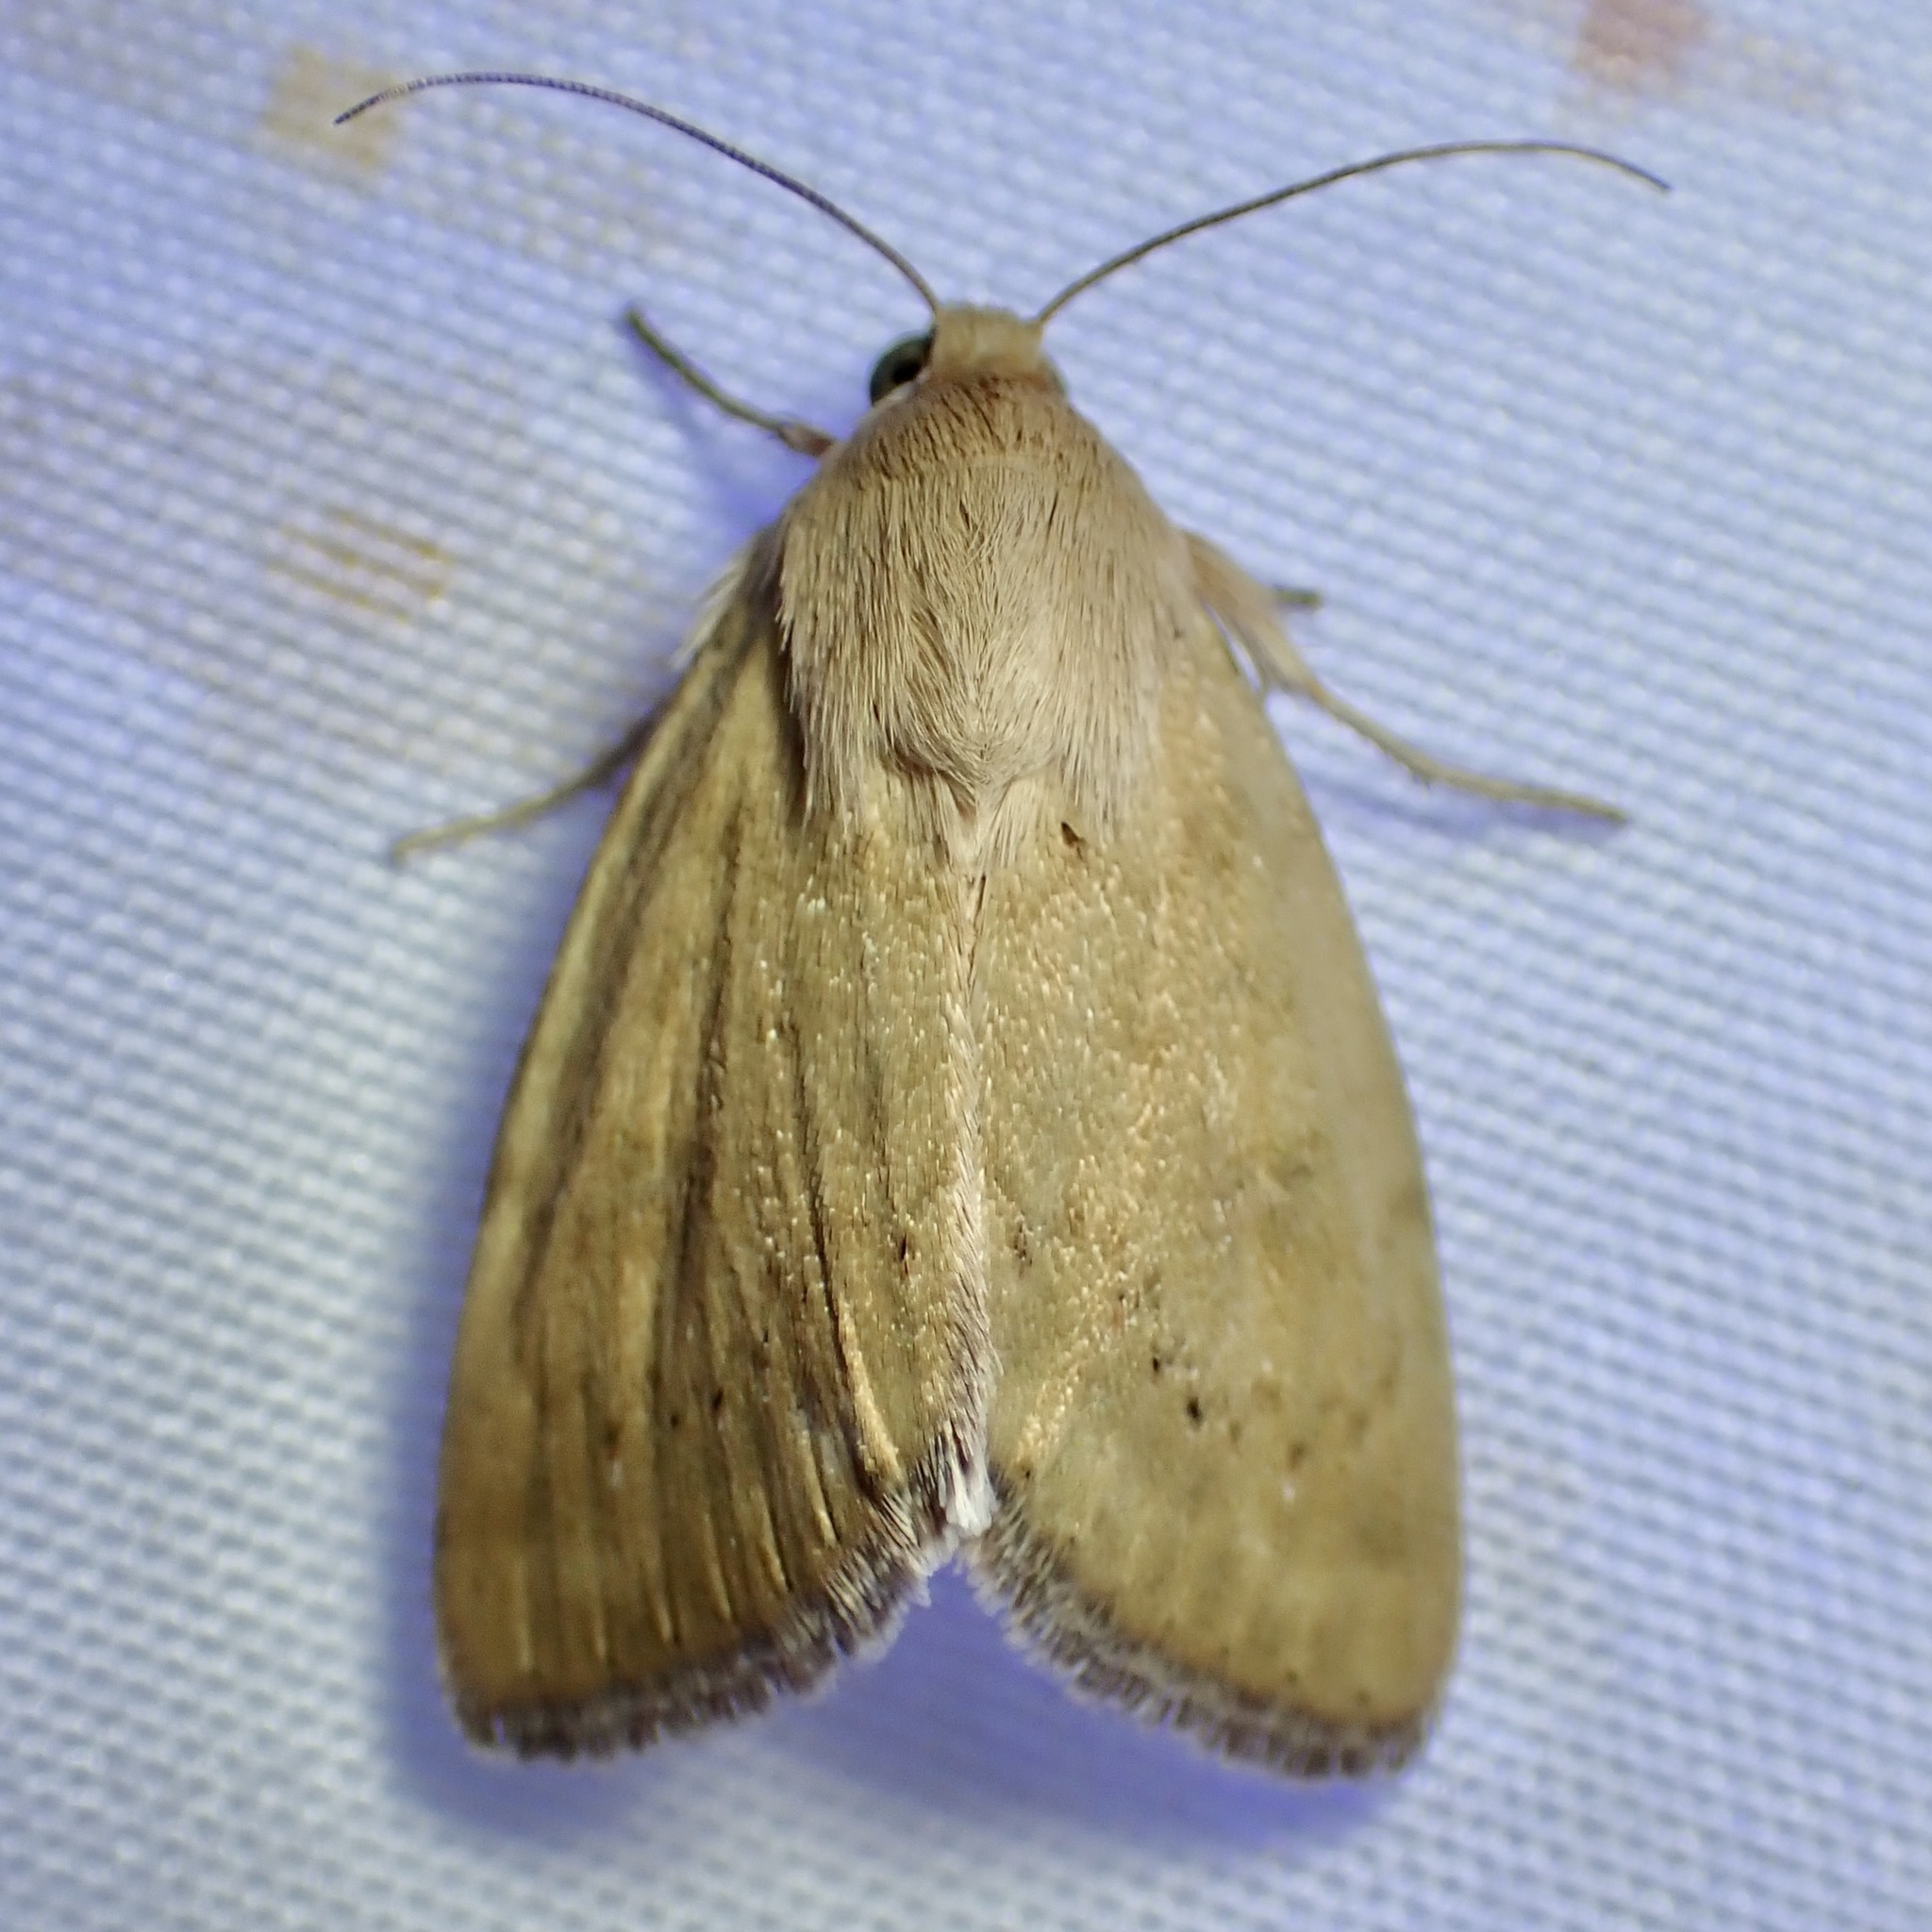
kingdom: Animalia
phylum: Arthropoda
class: Insecta
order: Lepidoptera
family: Noctuidae
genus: Heliocheilus
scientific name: Heliocheilus paradoxus
